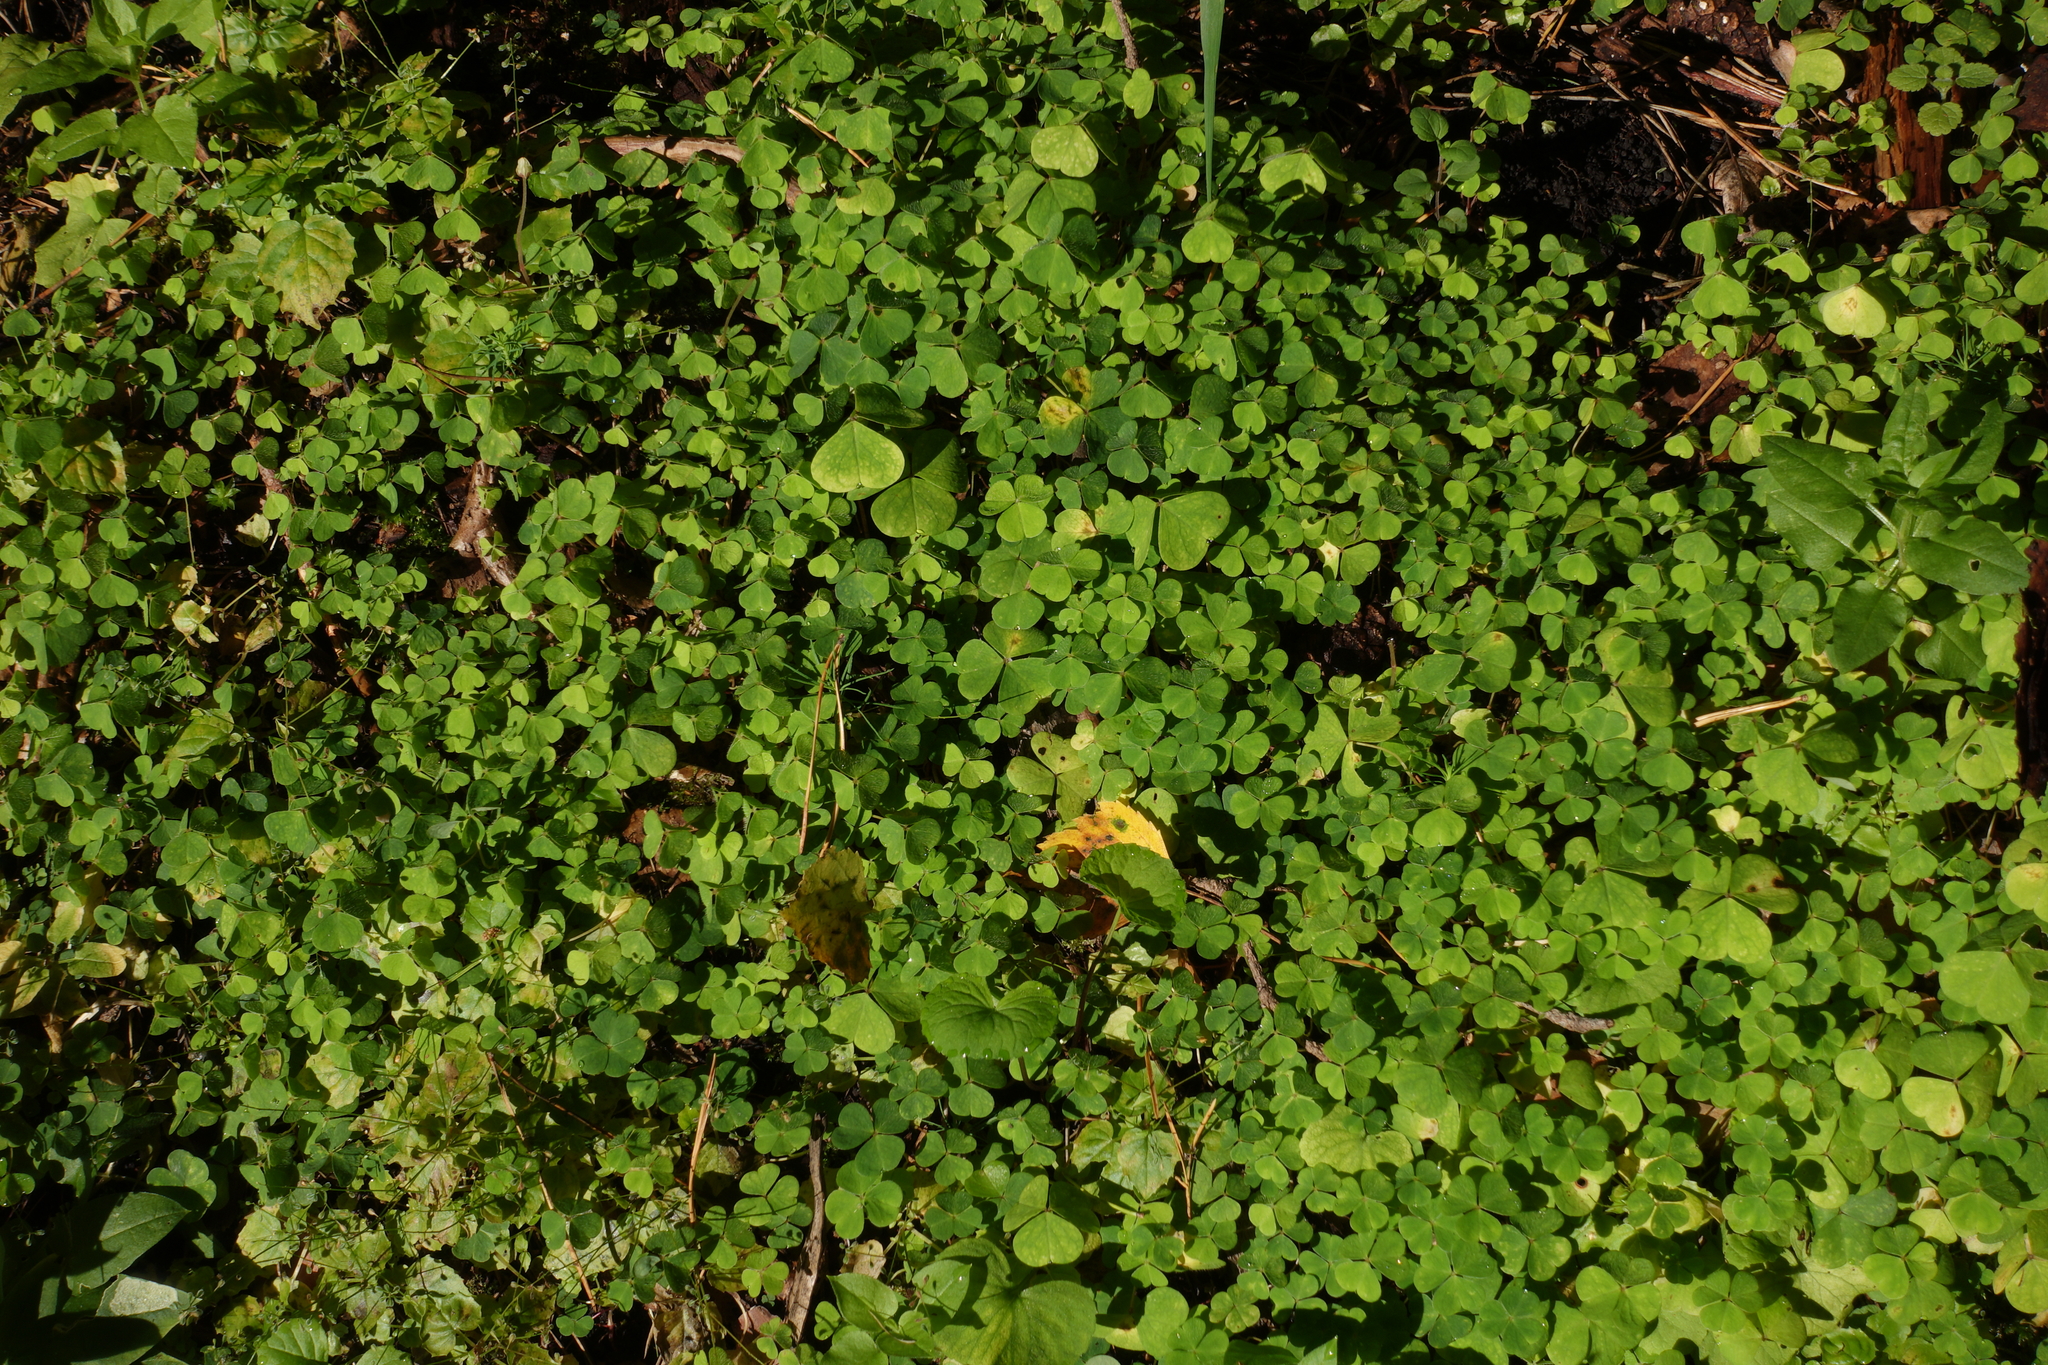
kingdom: Plantae
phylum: Tracheophyta
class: Magnoliopsida
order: Oxalidales
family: Oxalidaceae
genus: Oxalis
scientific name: Oxalis acetosella
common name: Wood-sorrel
